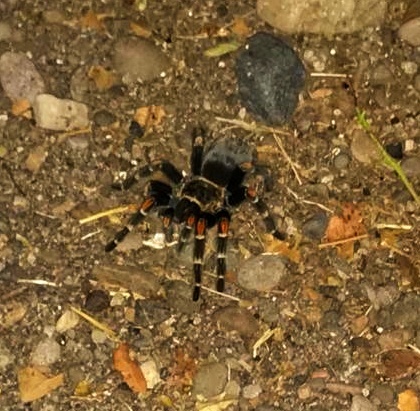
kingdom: Animalia
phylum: Arthropoda
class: Arachnida
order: Araneae
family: Theraphosidae
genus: Brachypelma
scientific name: Brachypelma auratum
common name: Mexican flameknee
